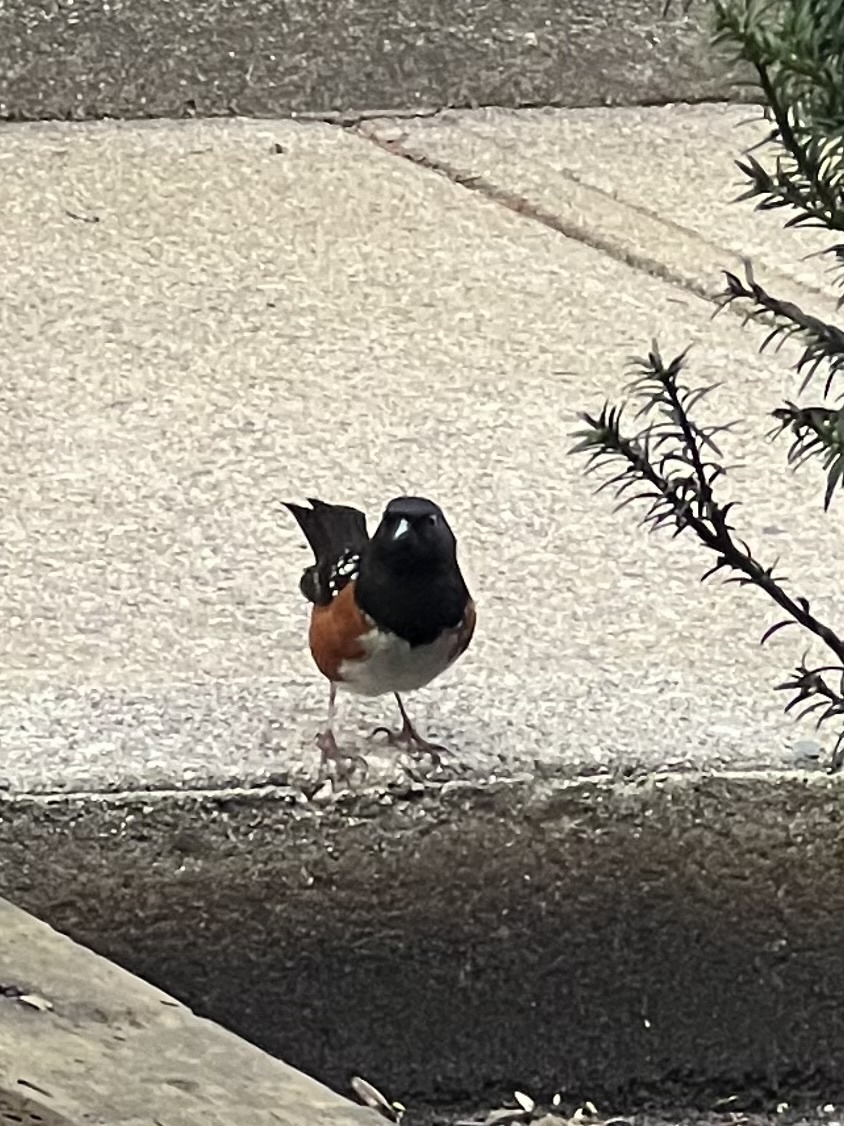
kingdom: Animalia
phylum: Chordata
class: Aves
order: Passeriformes
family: Passerellidae
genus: Pipilo
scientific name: Pipilo maculatus
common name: Spotted towhee
